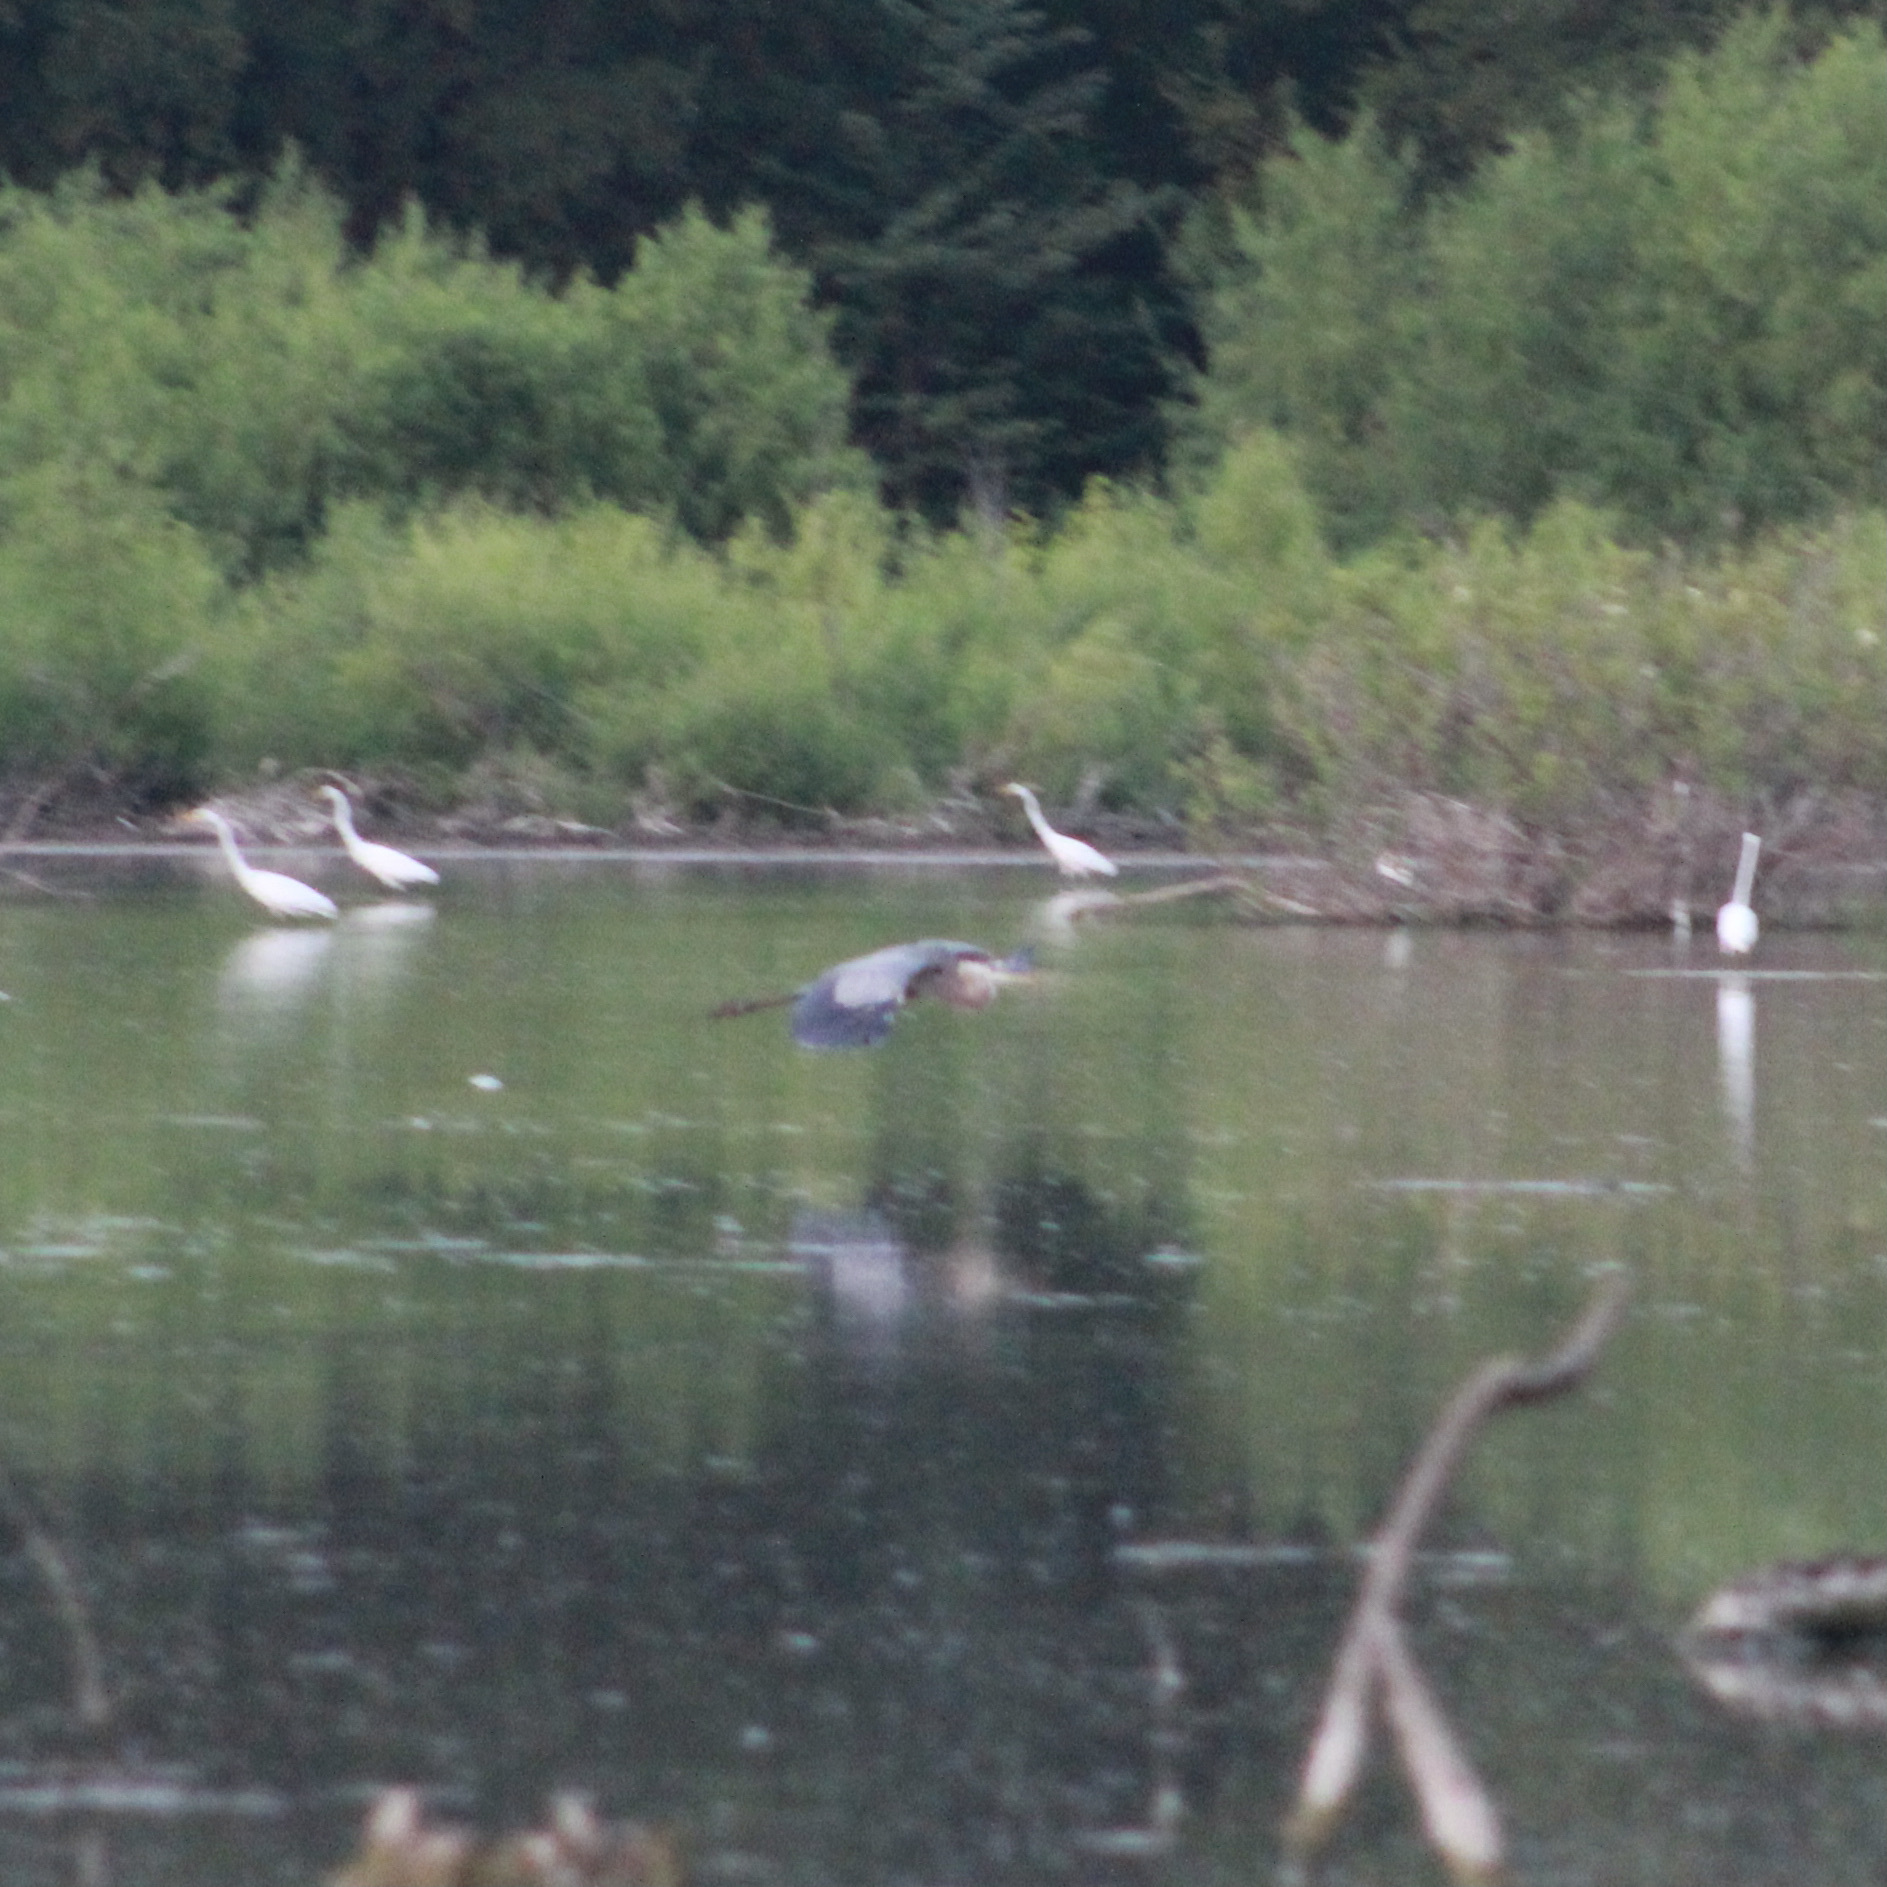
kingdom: Animalia
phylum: Chordata
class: Aves
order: Pelecaniformes
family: Ardeidae
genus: Ardea
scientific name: Ardea herodias
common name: Great blue heron
